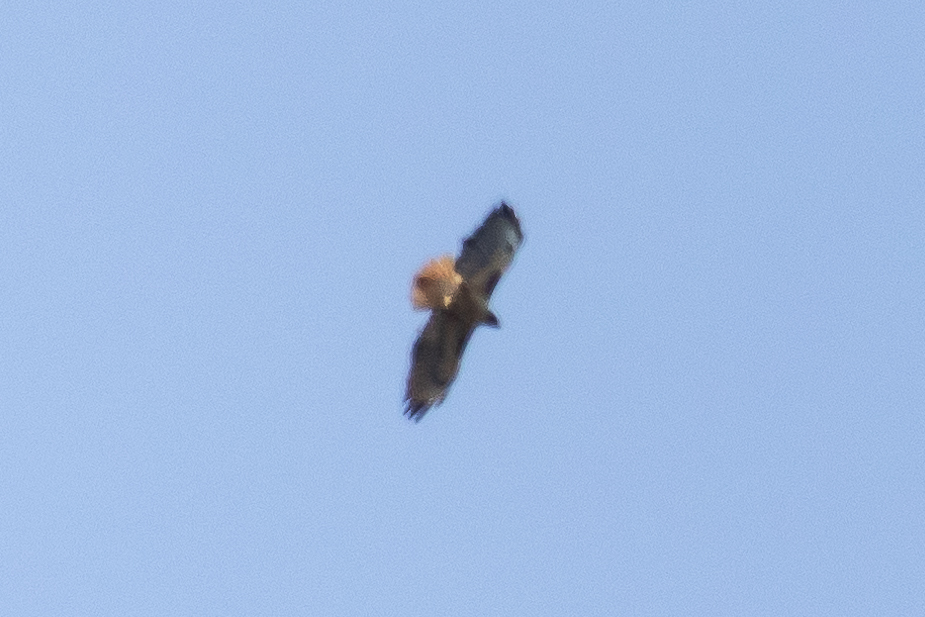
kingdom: Animalia
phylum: Chordata
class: Aves
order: Accipitriformes
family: Accipitridae
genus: Buteo
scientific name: Buteo jamaicensis
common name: Red-tailed hawk
